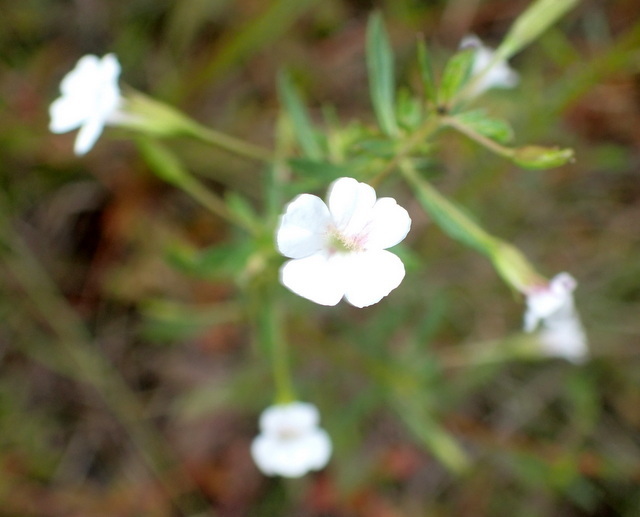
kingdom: Plantae
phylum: Tracheophyta
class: Magnoliopsida
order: Lamiales
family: Plantaginaceae
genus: Mecardonia
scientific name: Mecardonia acuminata
